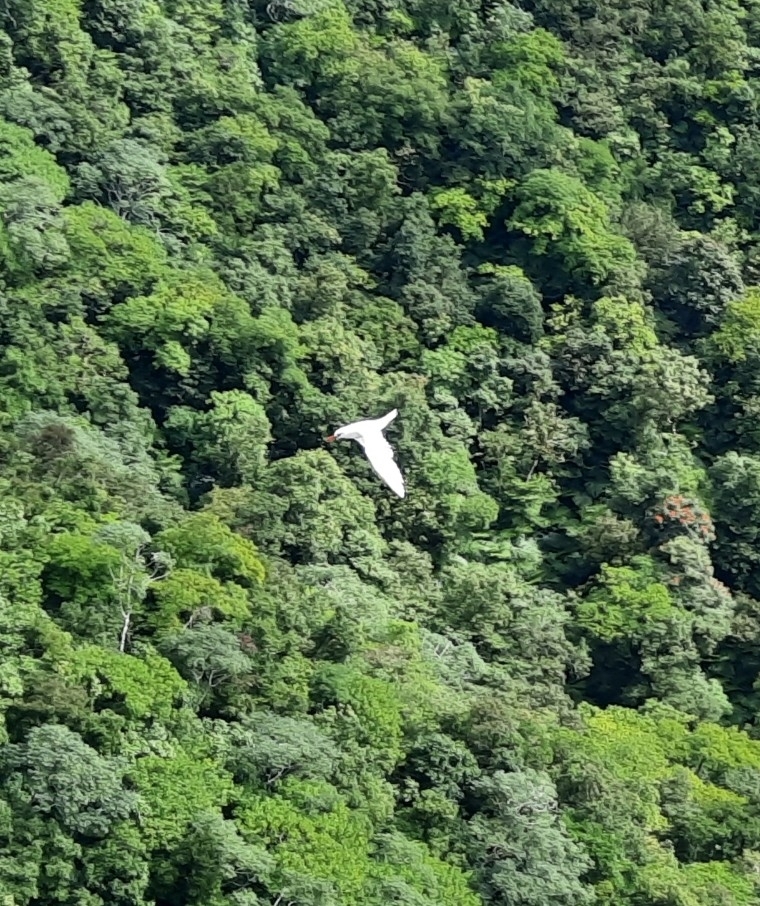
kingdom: Animalia
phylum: Chordata
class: Aves
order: Phaethontiformes
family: Phaethontidae
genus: Phaethon
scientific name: Phaethon rubricauda
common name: Red-tailed tropicbird
